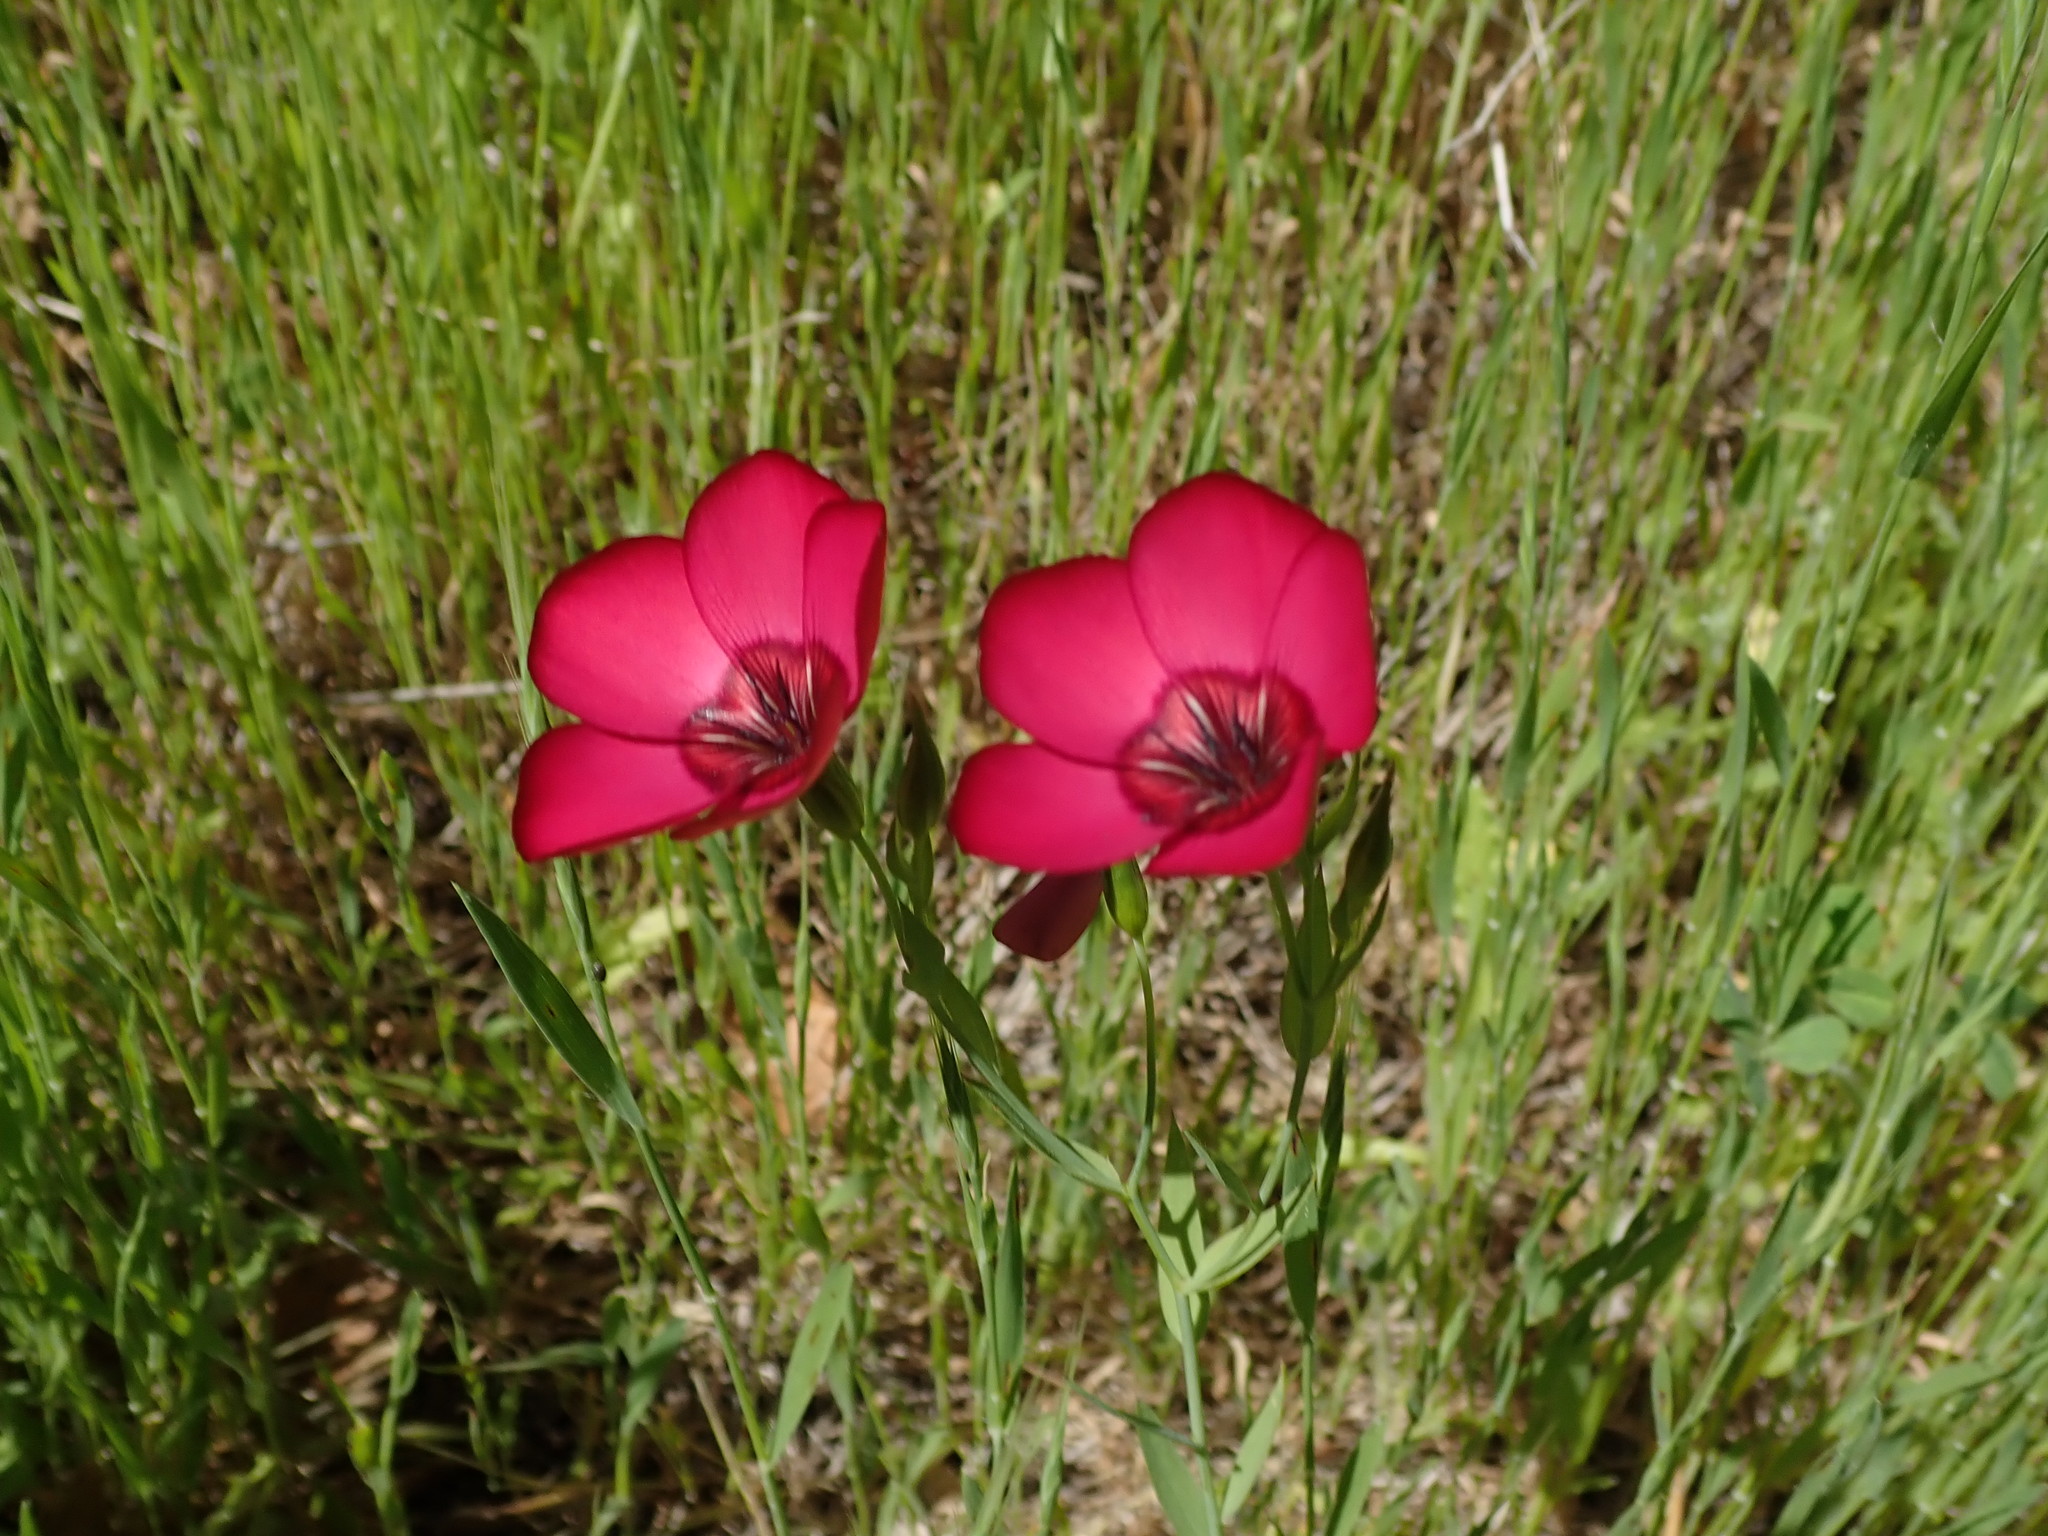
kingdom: Plantae
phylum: Tracheophyta
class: Magnoliopsida
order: Malpighiales
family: Linaceae
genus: Linum
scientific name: Linum grandiflorum
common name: Crimson flax
